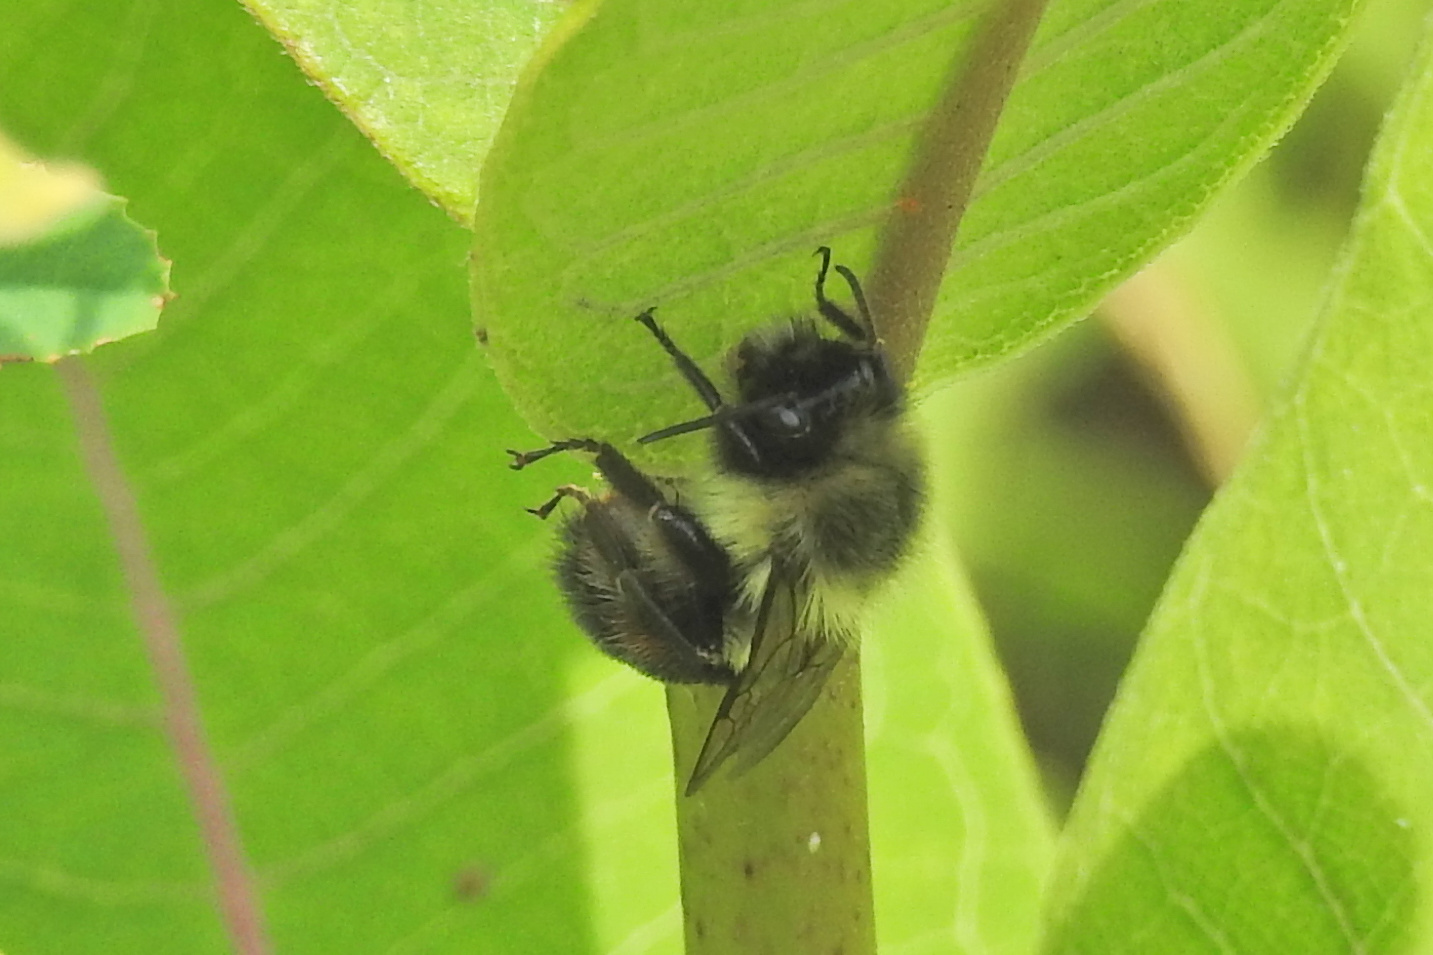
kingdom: Animalia
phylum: Arthropoda
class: Insecta
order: Hymenoptera
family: Apidae
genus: Bombus
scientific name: Bombus impatiens
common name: Common eastern bumble bee
